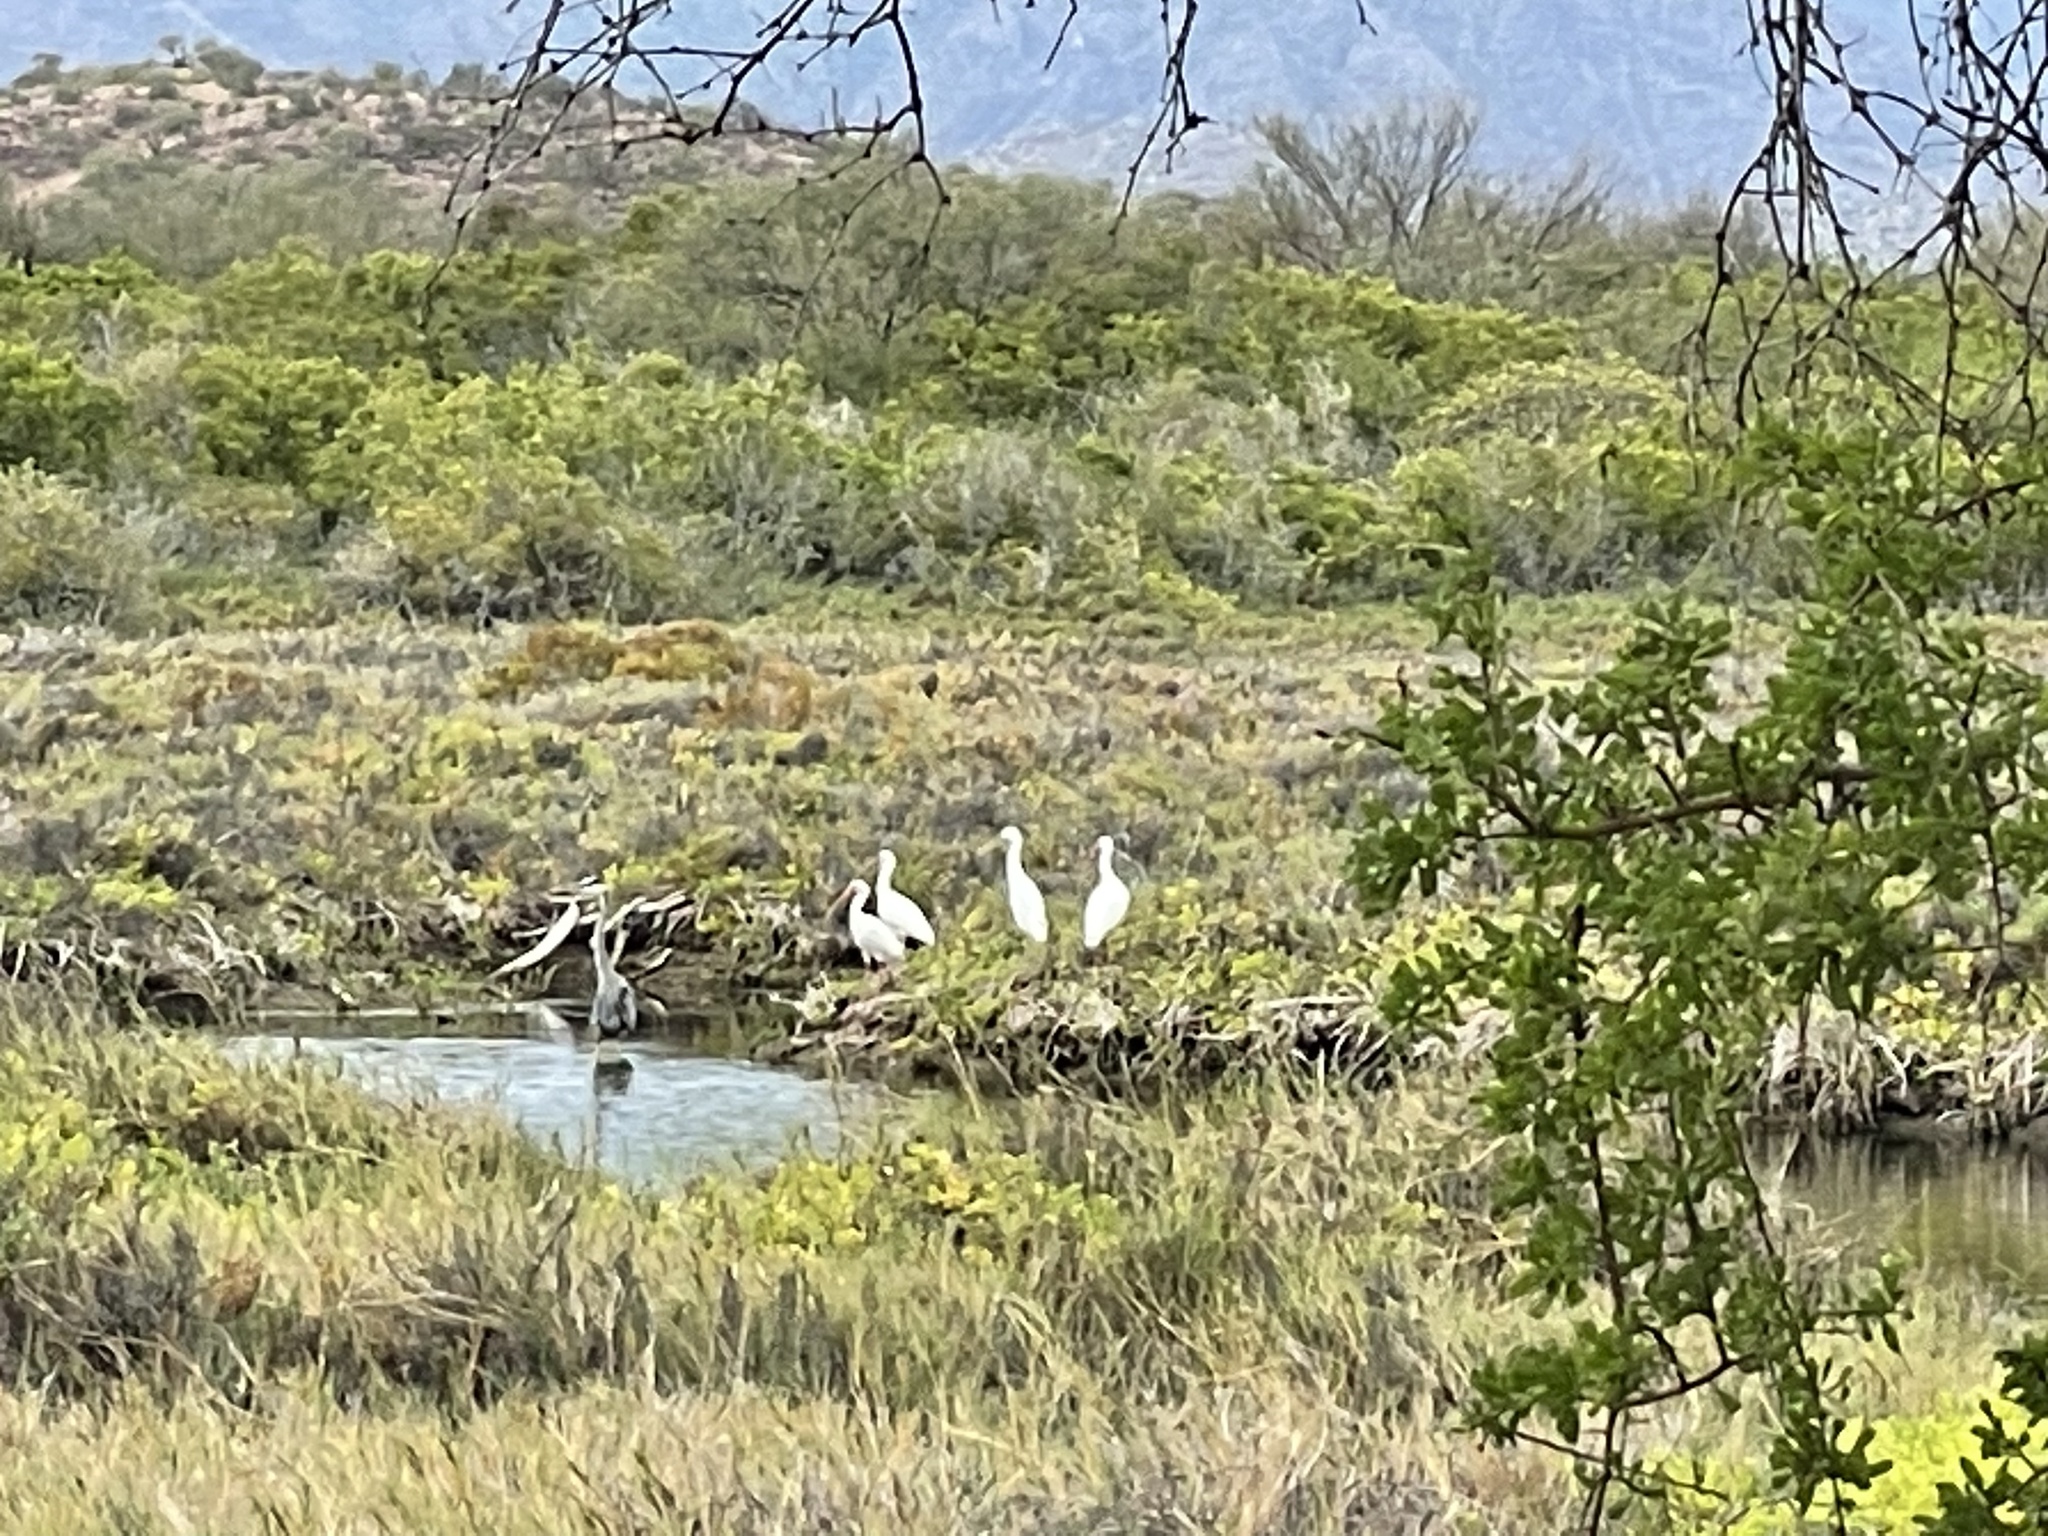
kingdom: Animalia
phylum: Chordata
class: Aves
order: Pelecaniformes
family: Threskiornithidae
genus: Eudocimus
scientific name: Eudocimus albus
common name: White ibis
